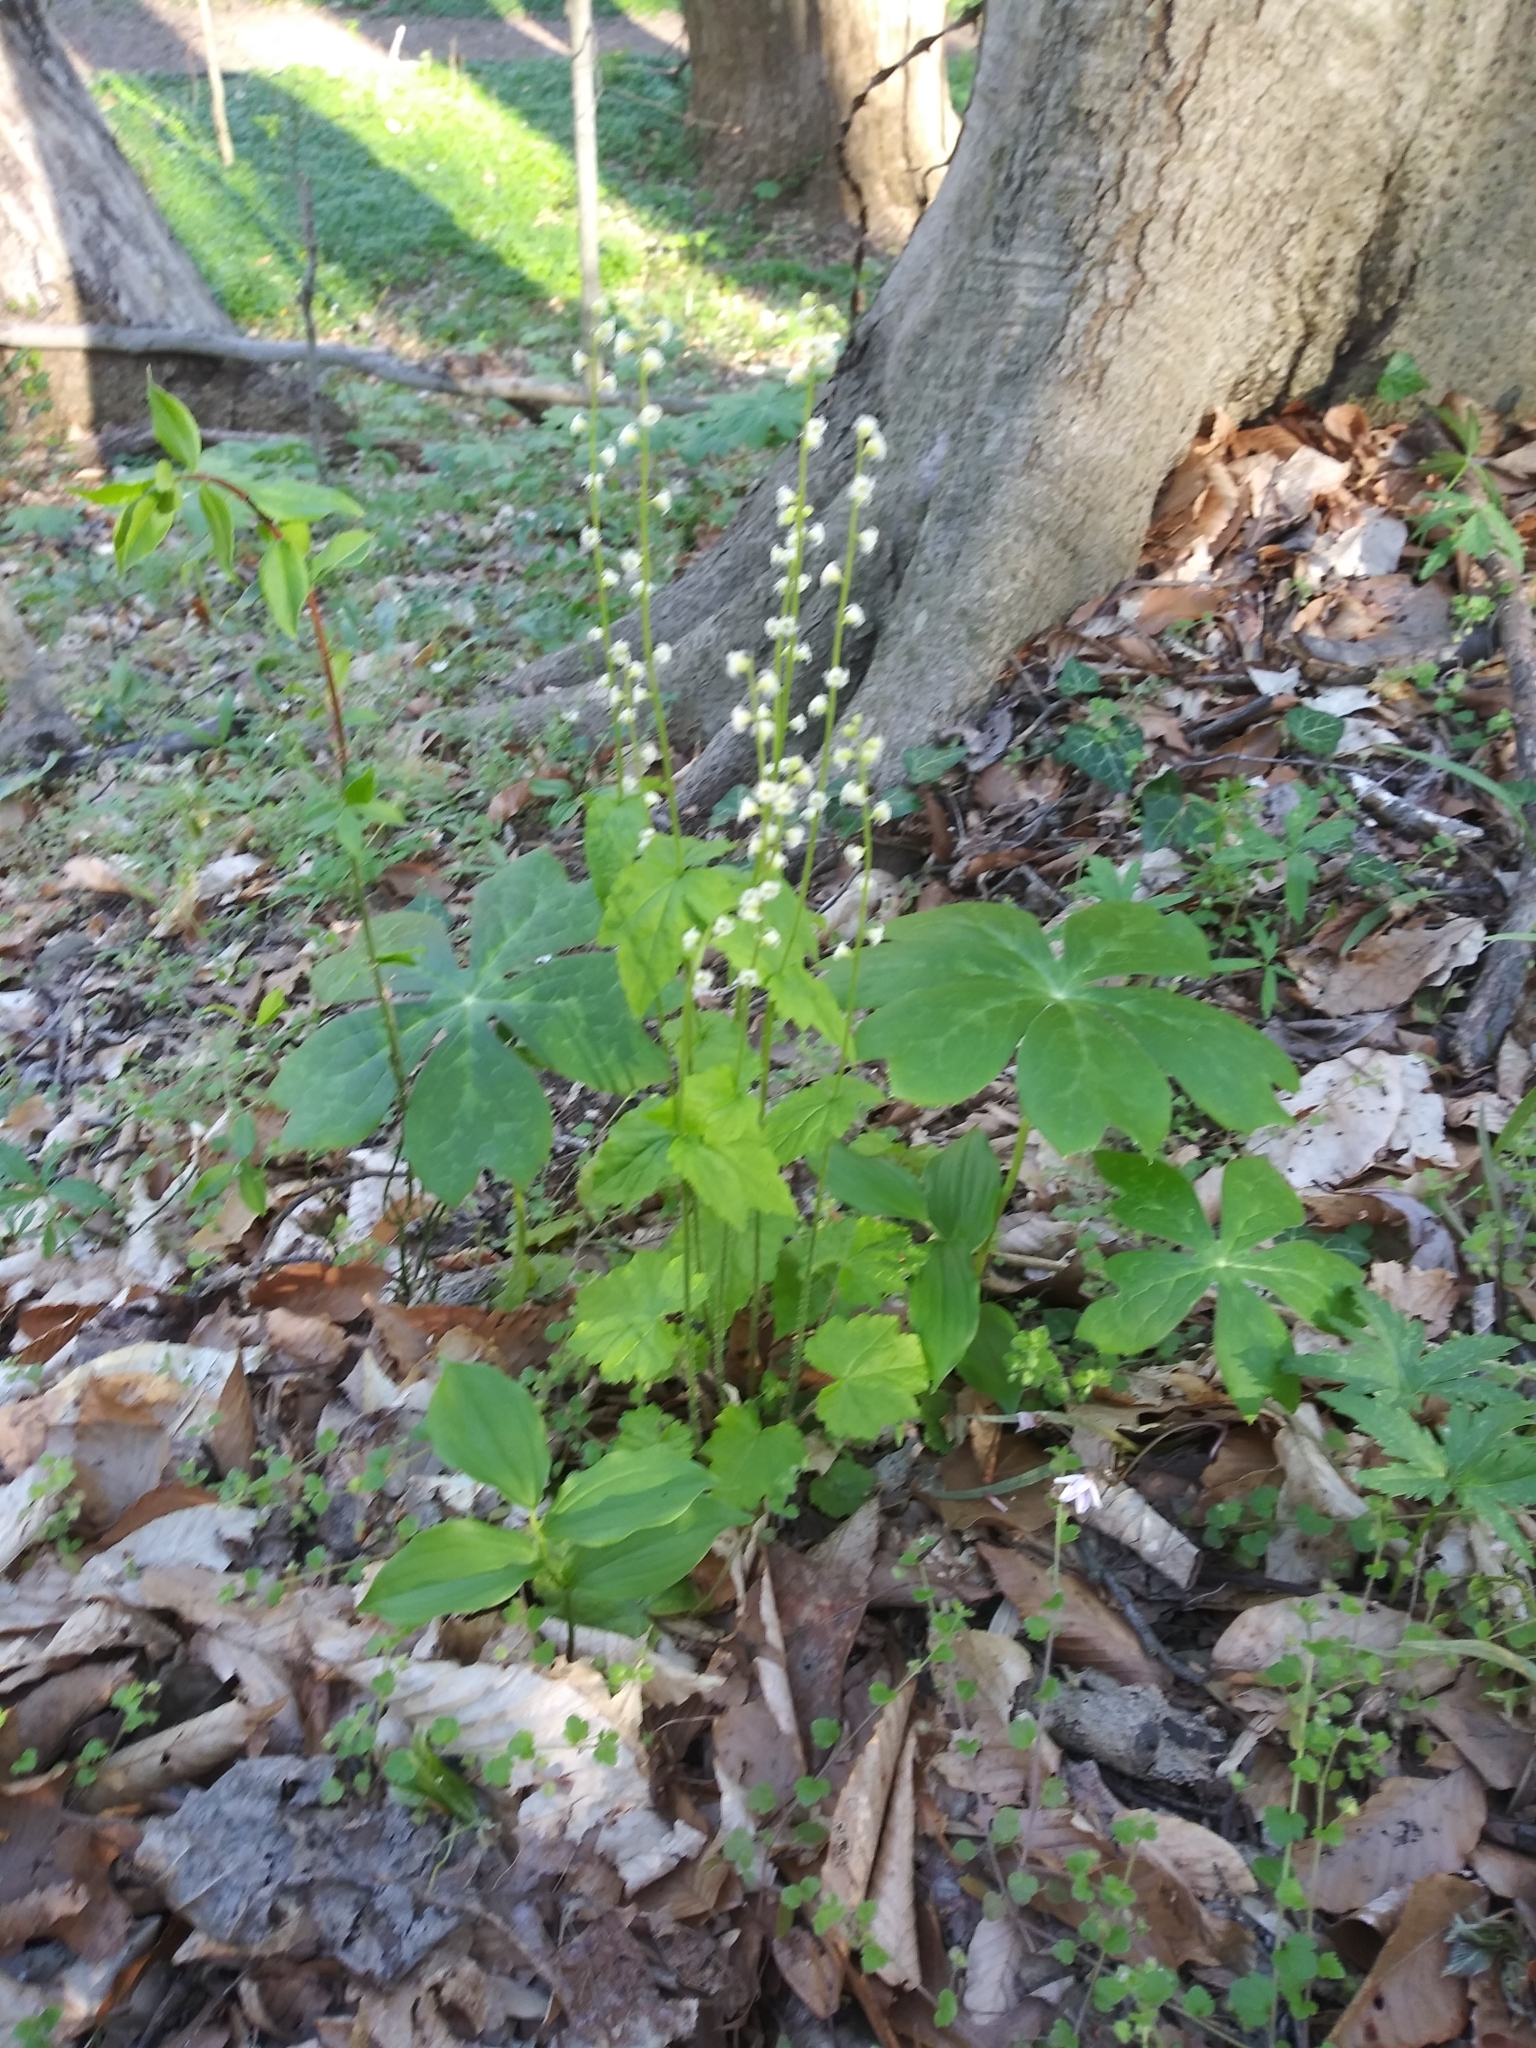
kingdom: Plantae
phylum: Tracheophyta
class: Magnoliopsida
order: Saxifragales
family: Saxifragaceae
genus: Mitella
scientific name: Mitella diphylla
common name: Coolwort
